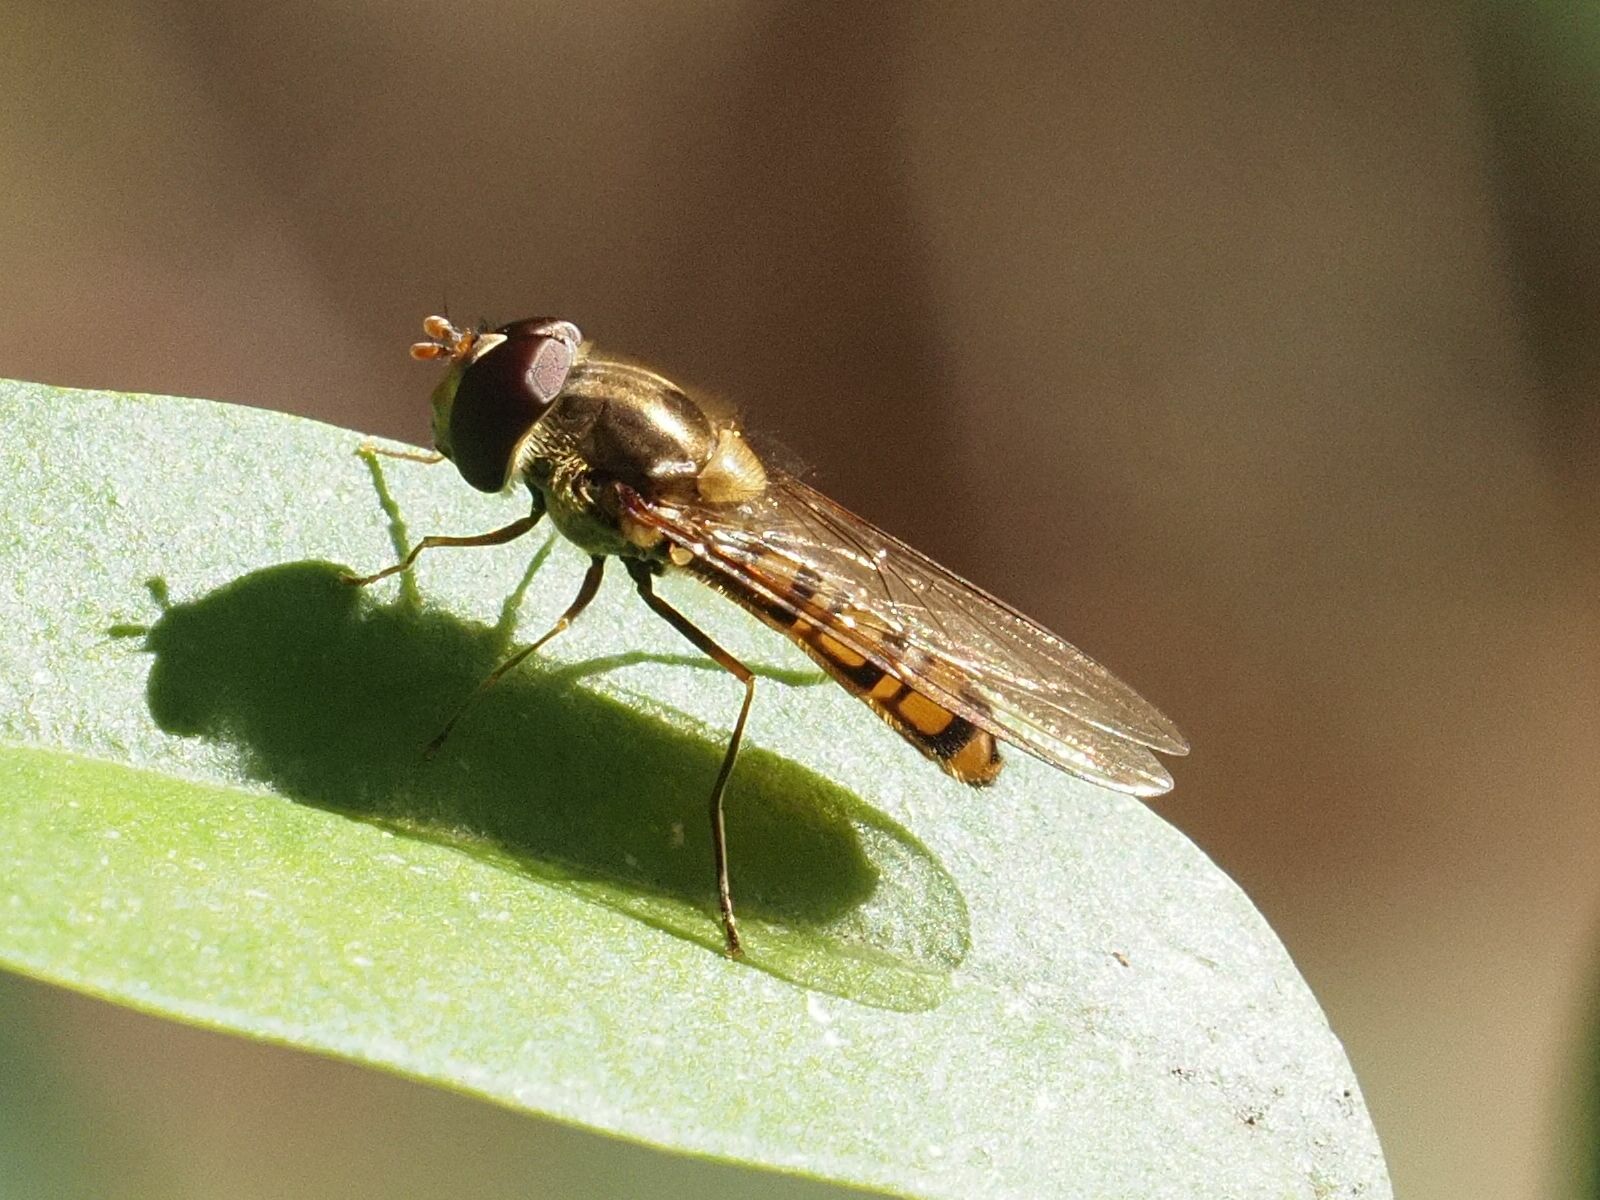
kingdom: Animalia
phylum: Arthropoda
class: Insecta
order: Diptera
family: Syrphidae
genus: Episyrphus
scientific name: Episyrphus balteatus
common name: Marmalade hoverfly
